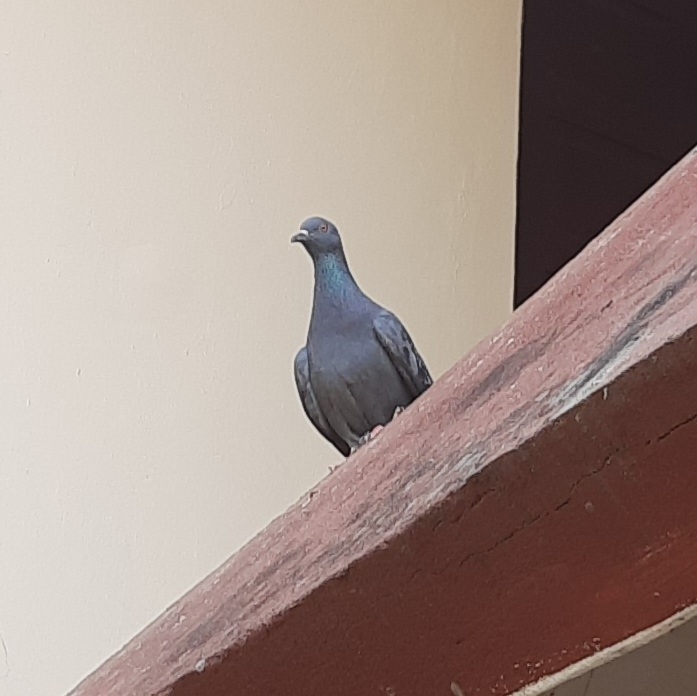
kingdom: Animalia
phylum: Chordata
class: Aves
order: Columbiformes
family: Columbidae
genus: Columba
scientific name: Columba livia
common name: Rock pigeon
